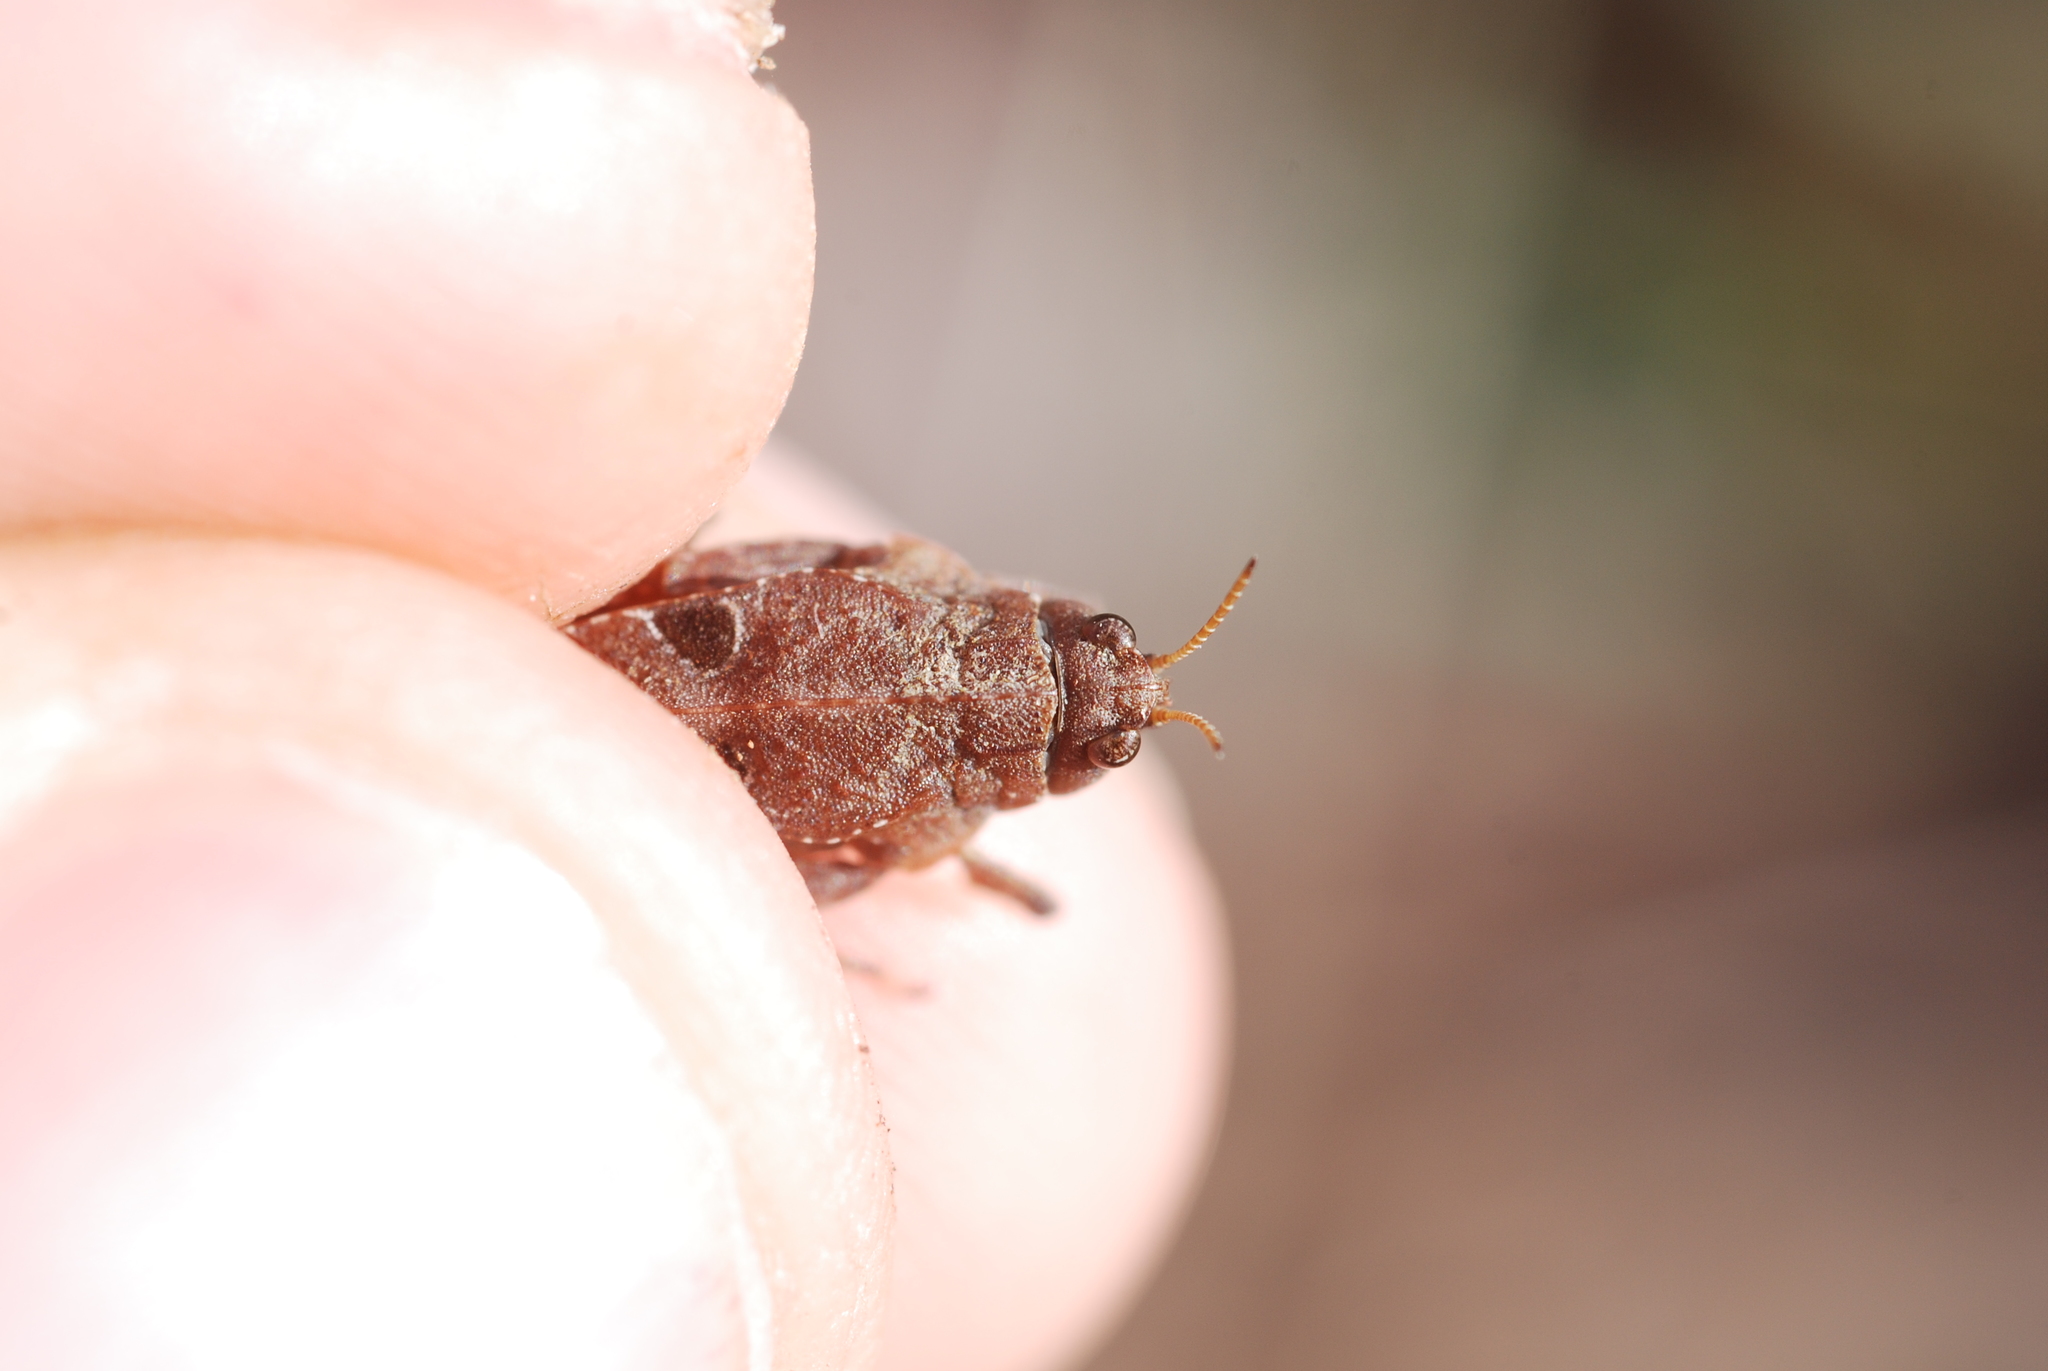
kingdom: Animalia
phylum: Arthropoda
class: Insecta
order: Orthoptera
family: Tetrigidae
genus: Tetrix
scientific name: Tetrix bipunctata
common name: Two-spotted groundhopper
